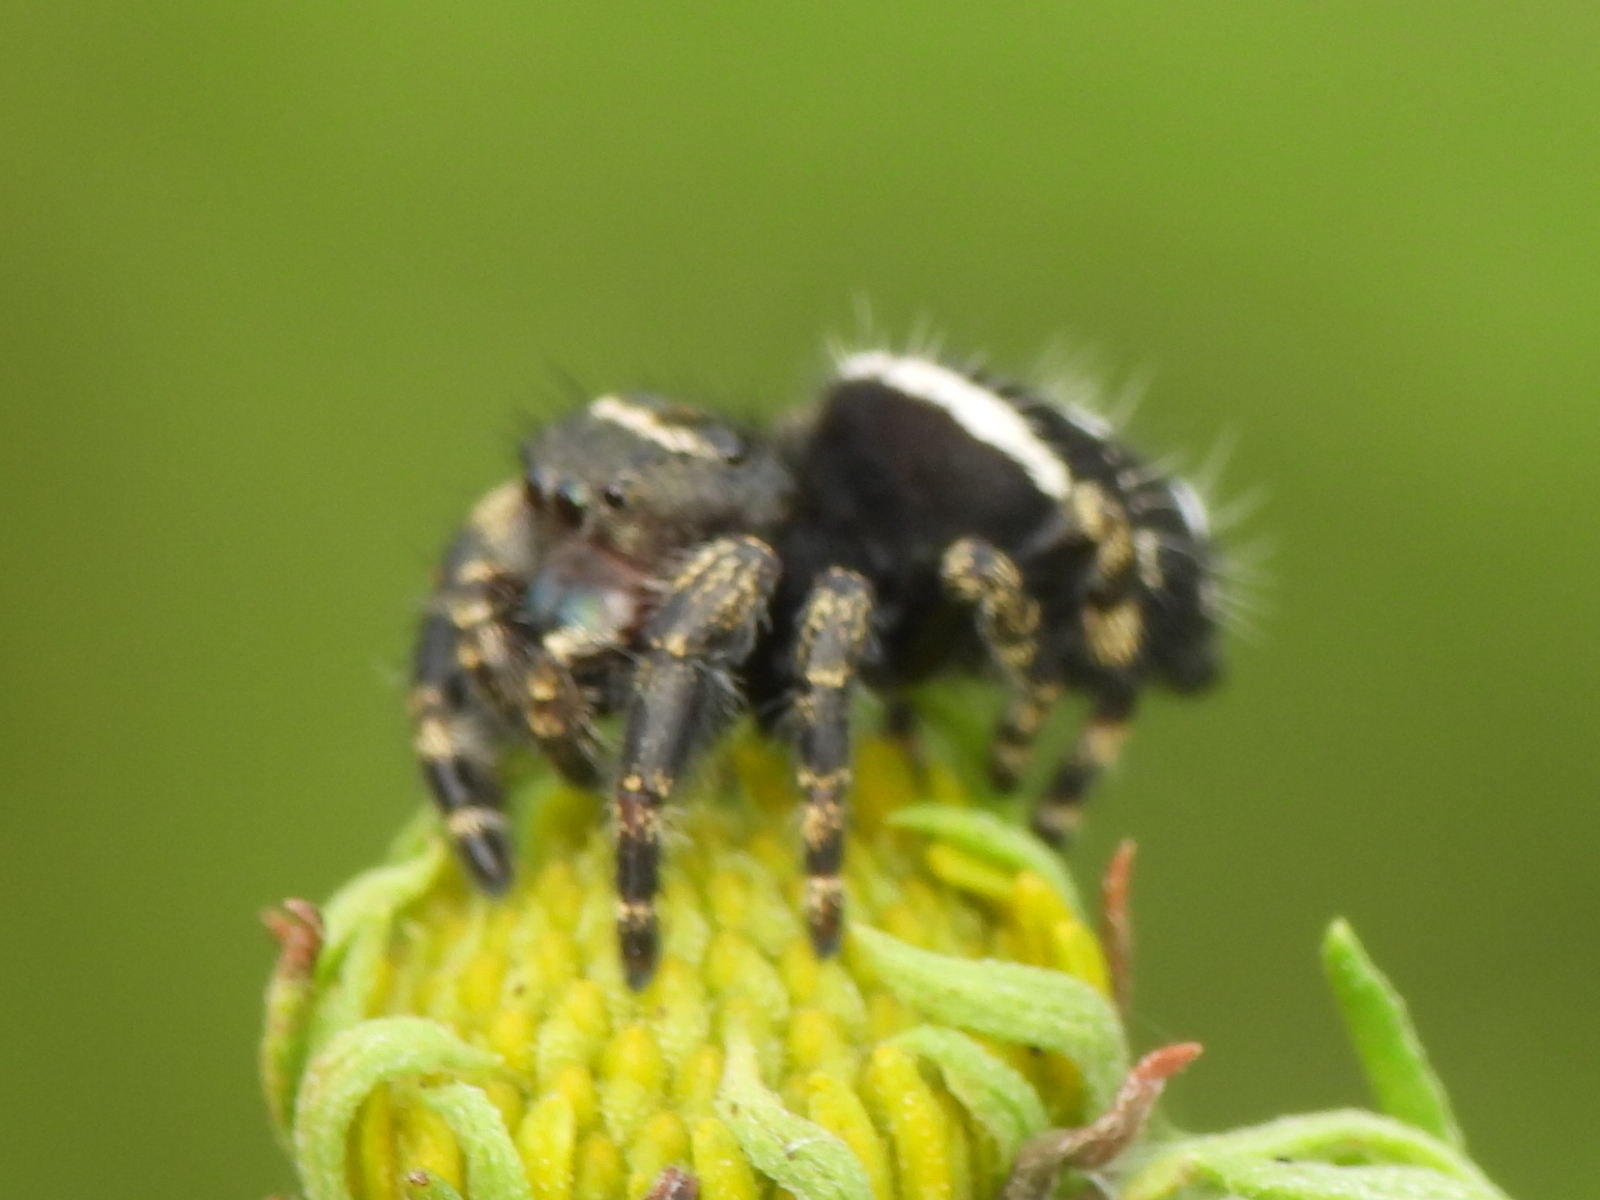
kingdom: Animalia
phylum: Arthropoda
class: Arachnida
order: Araneae
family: Salticidae
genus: Phidippus
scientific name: Phidippus audax
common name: Bold jumper
